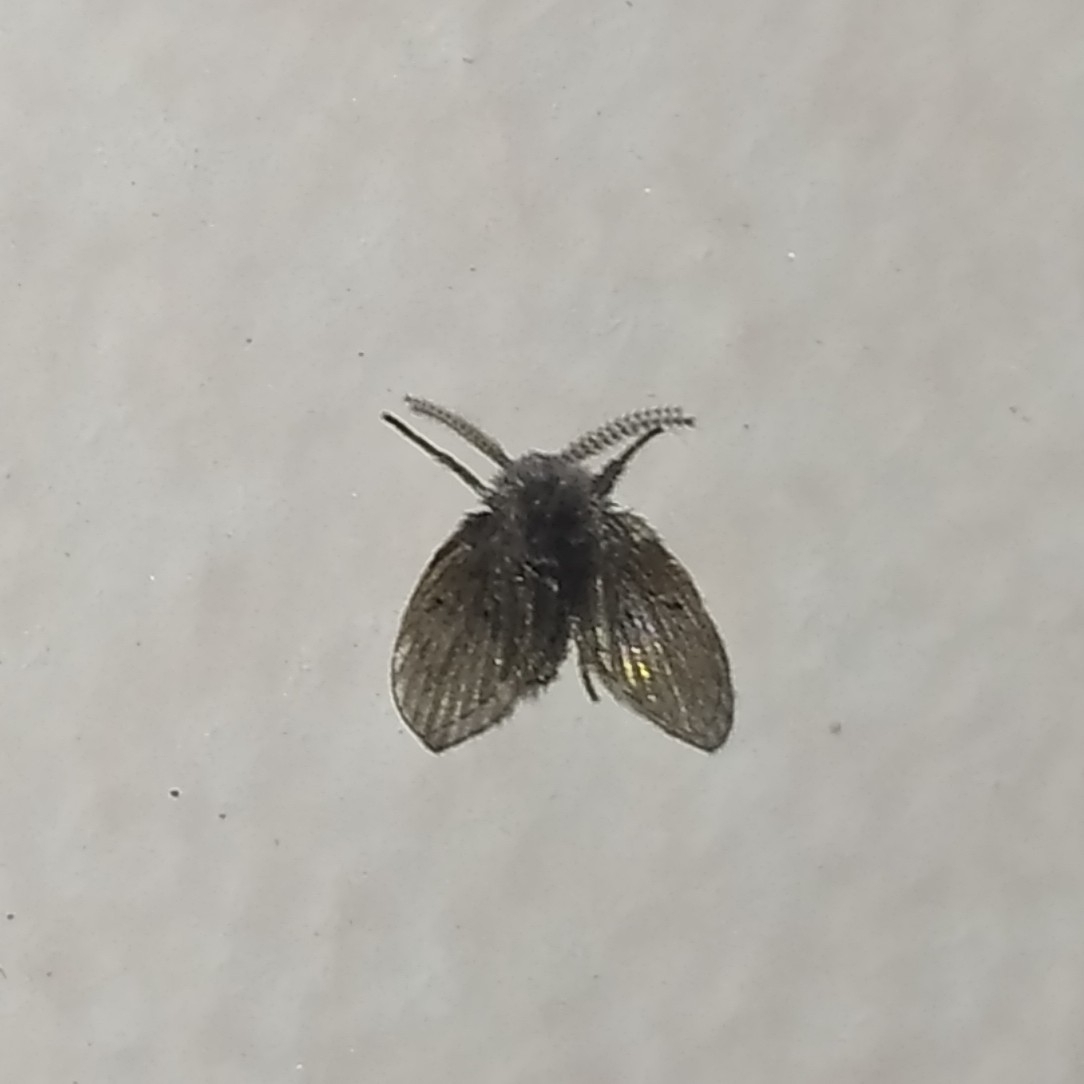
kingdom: Animalia
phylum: Arthropoda
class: Insecta
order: Diptera
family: Psychodidae
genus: Clogmia
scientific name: Clogmia albipunctatus
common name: White-spotted moth fly
